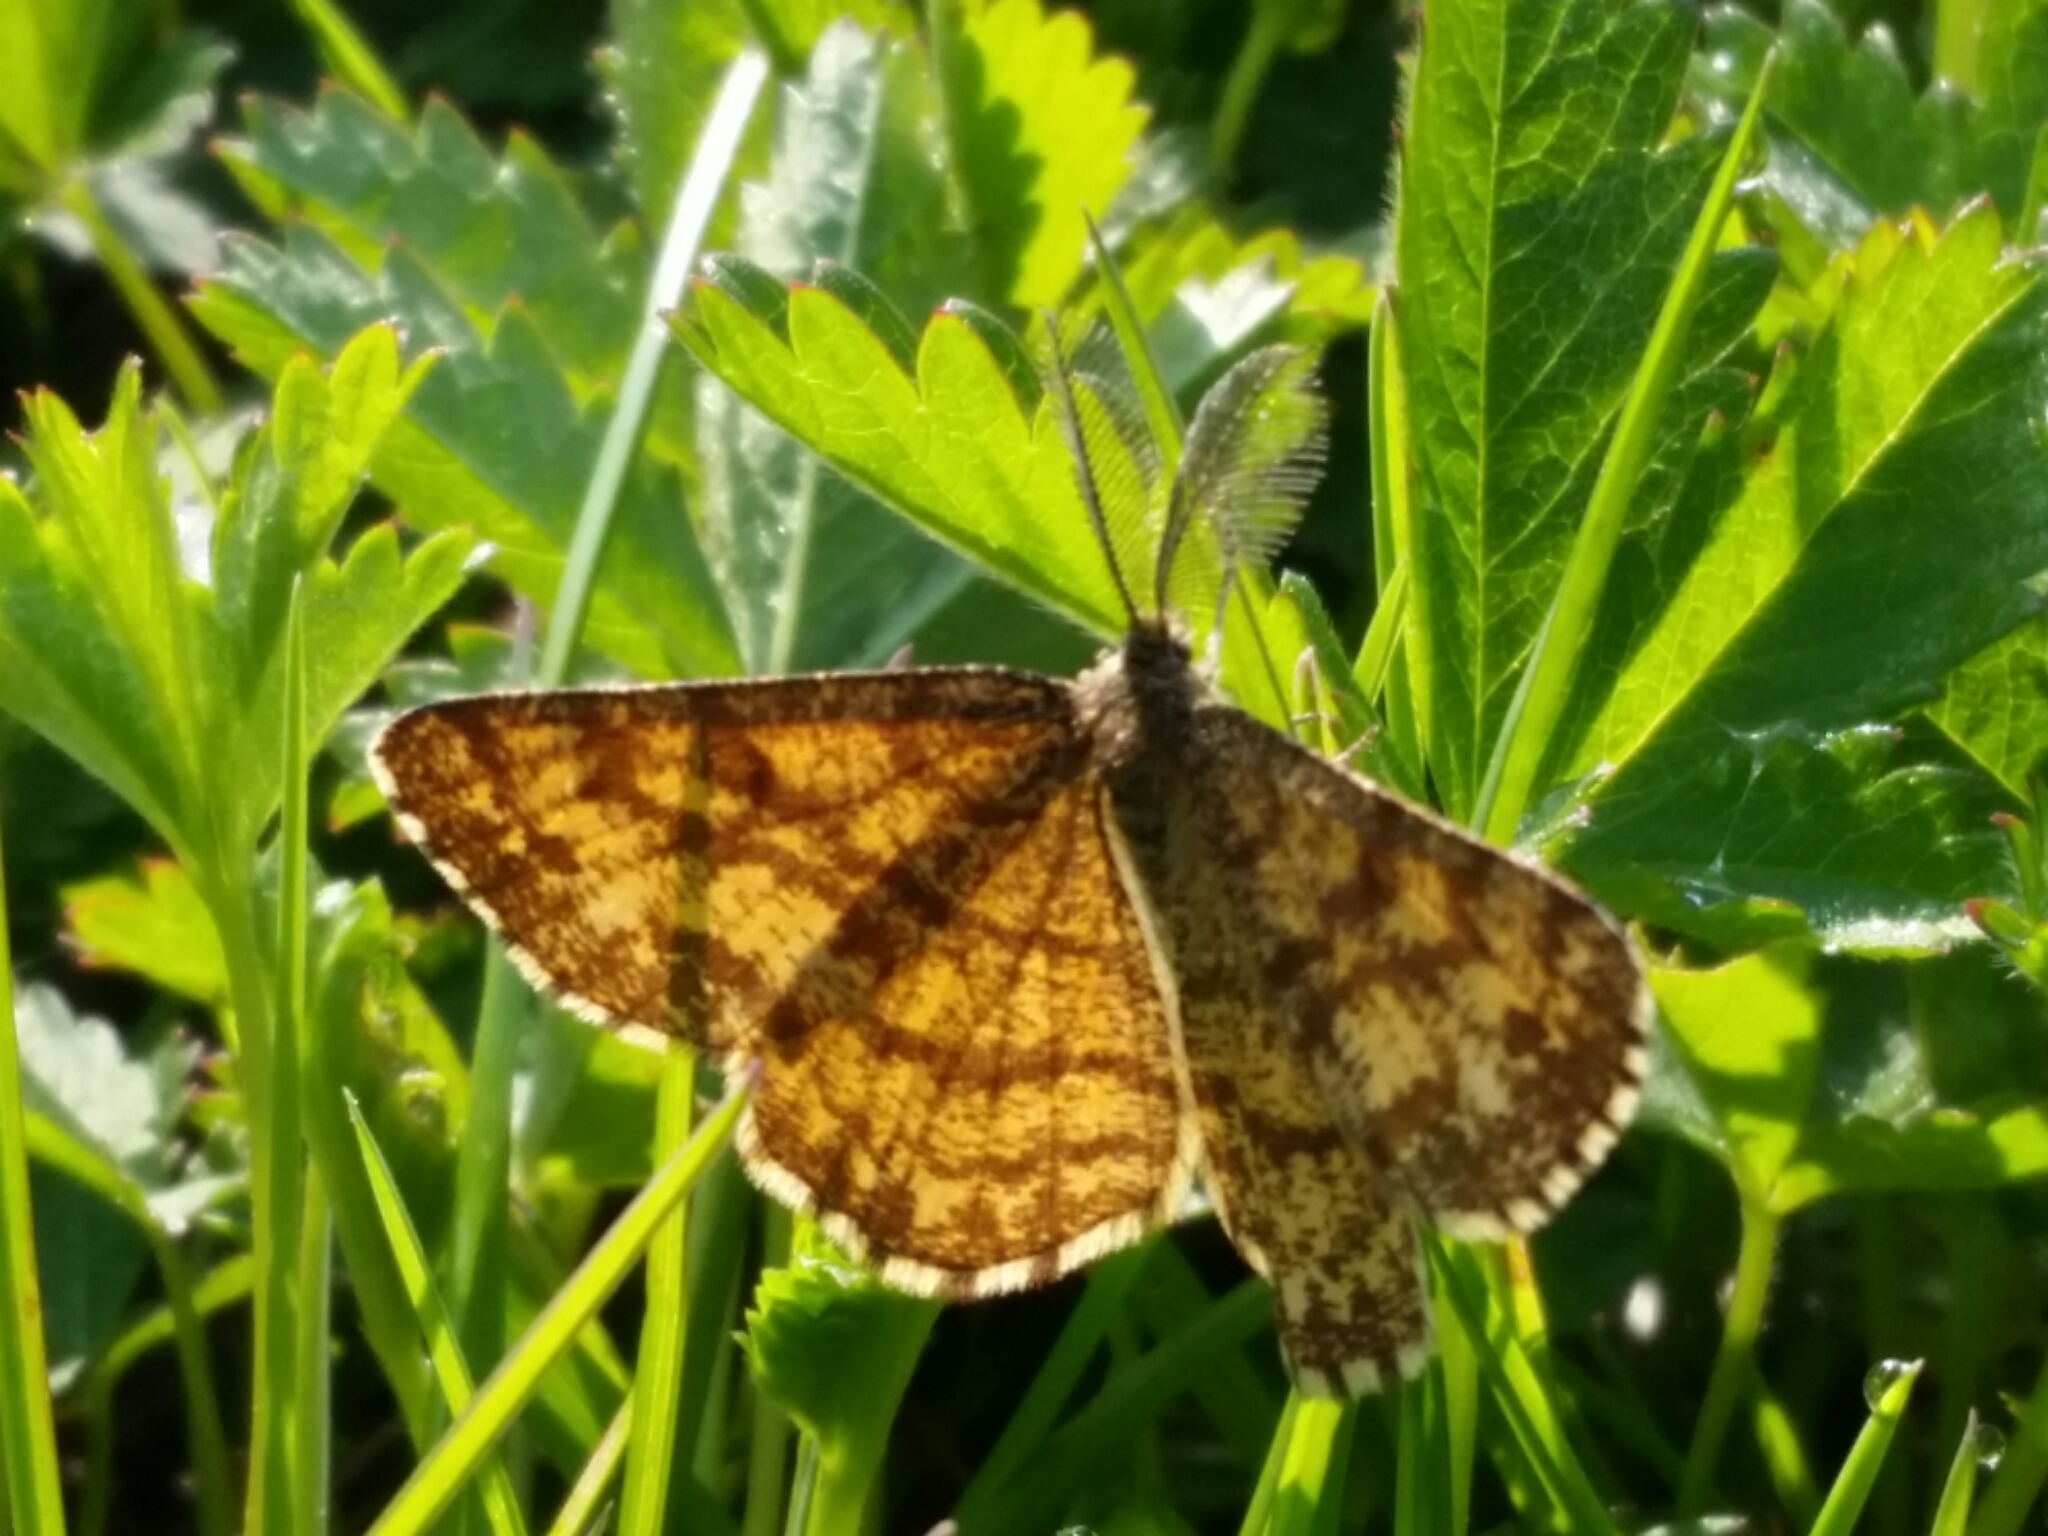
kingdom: Animalia
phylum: Arthropoda
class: Insecta
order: Lepidoptera
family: Geometridae
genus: Ematurga
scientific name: Ematurga atomaria
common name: Common heath
